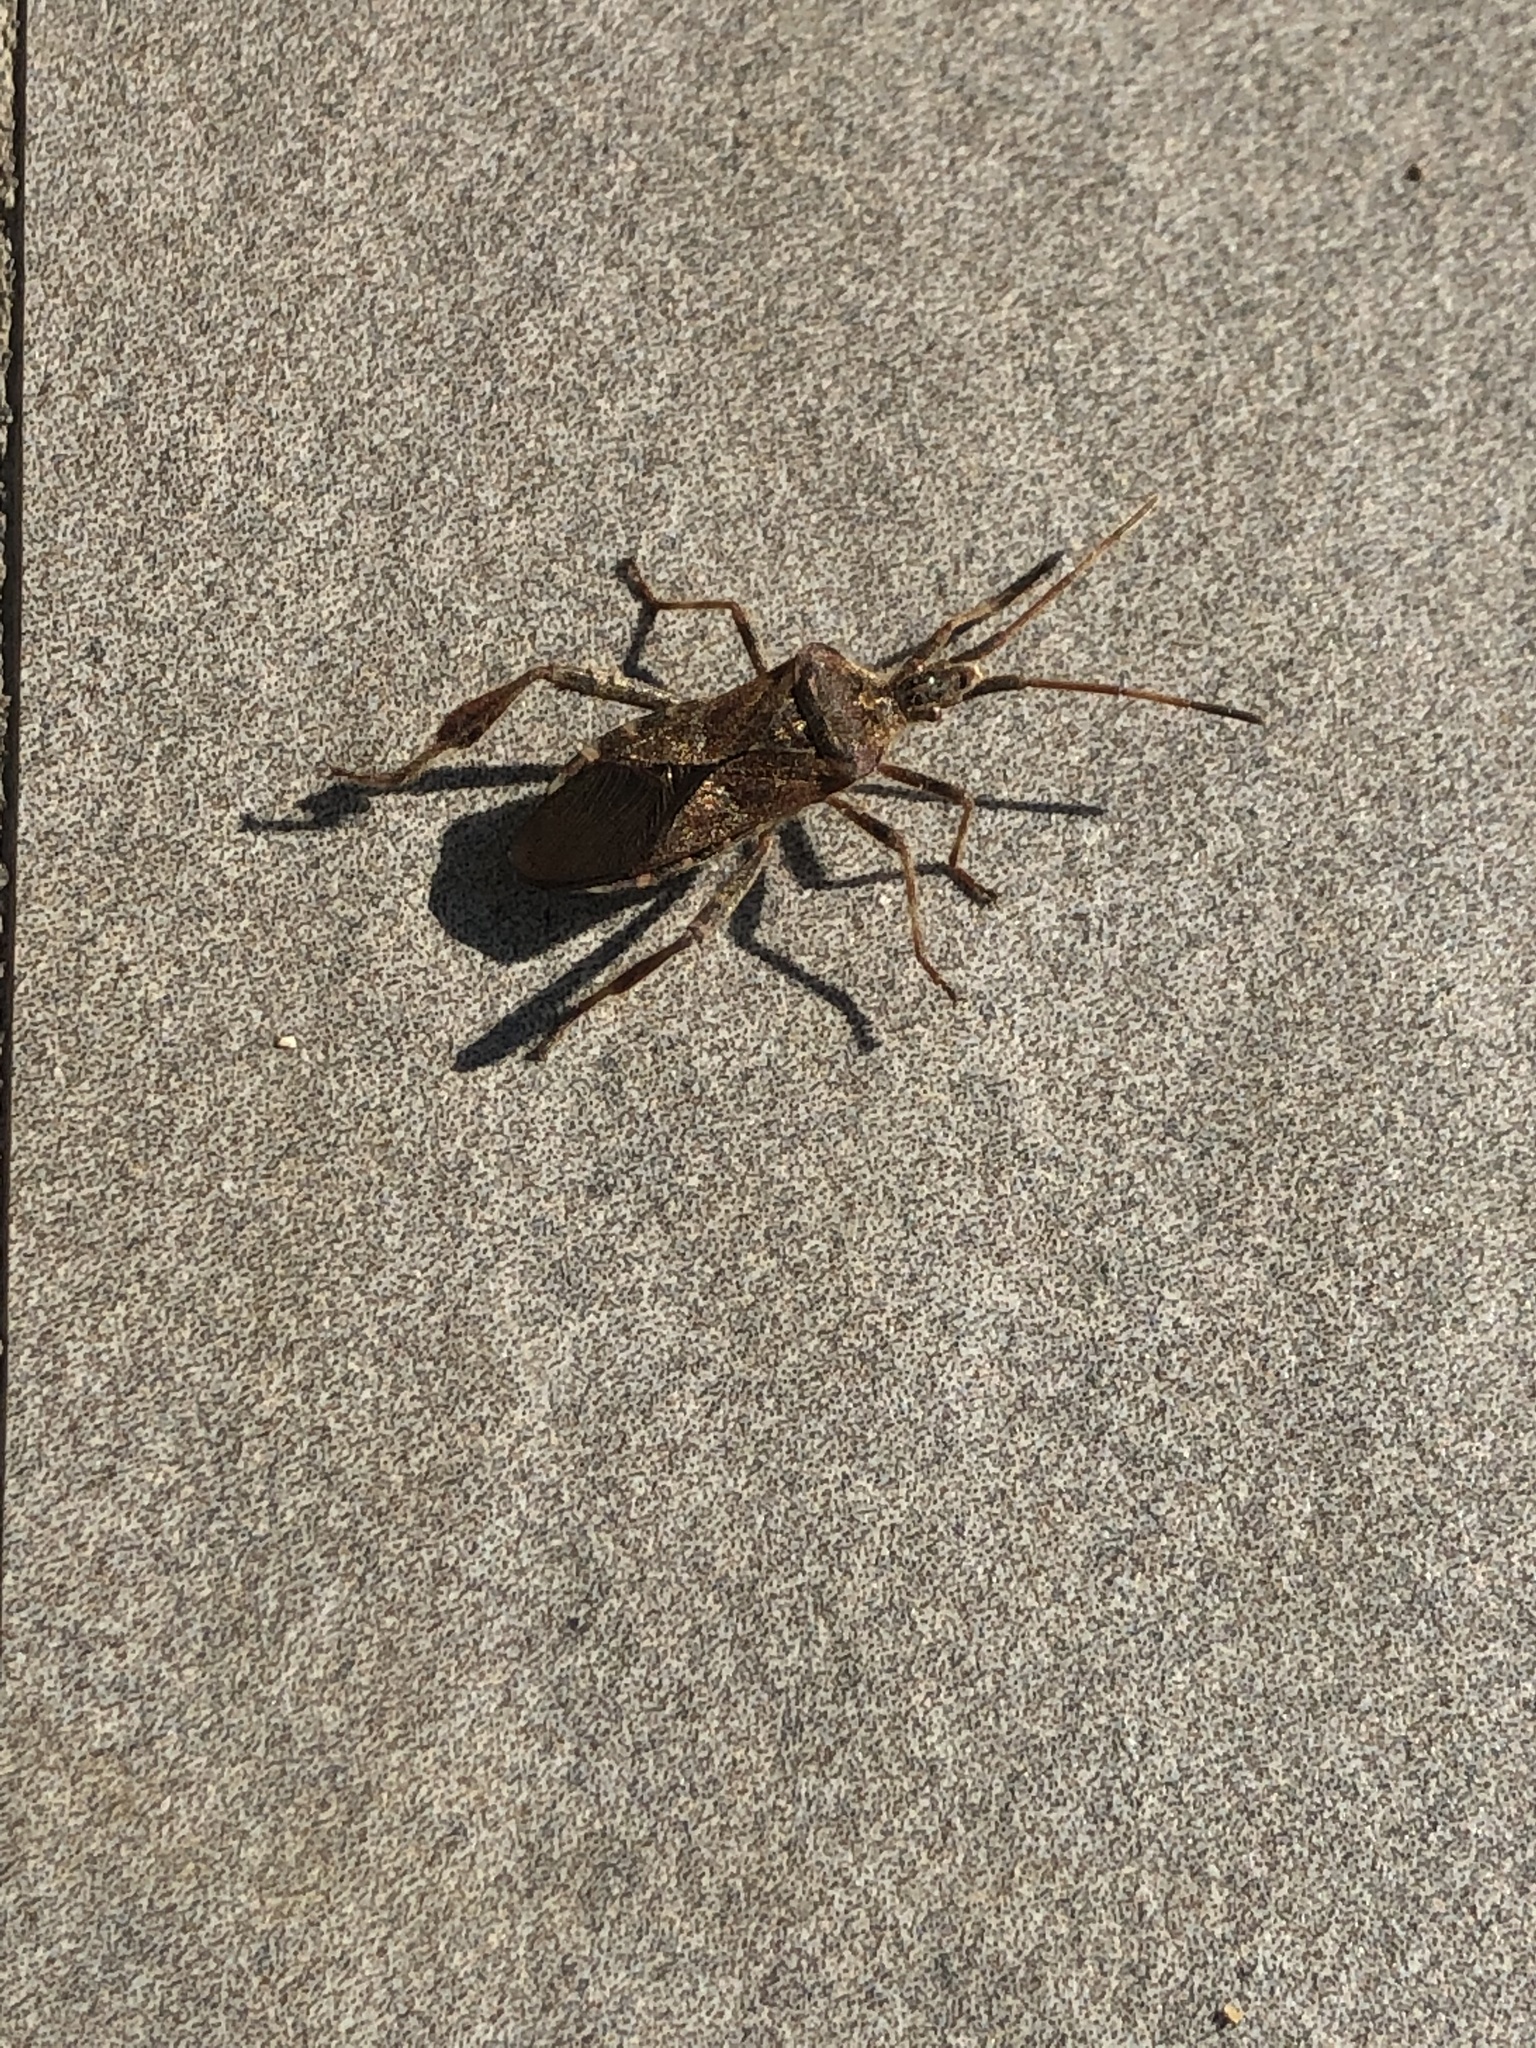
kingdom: Animalia
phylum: Arthropoda
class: Insecta
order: Hemiptera
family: Coreidae
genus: Leptoglossus
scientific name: Leptoglossus occidentalis
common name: Western conifer-seed bug
